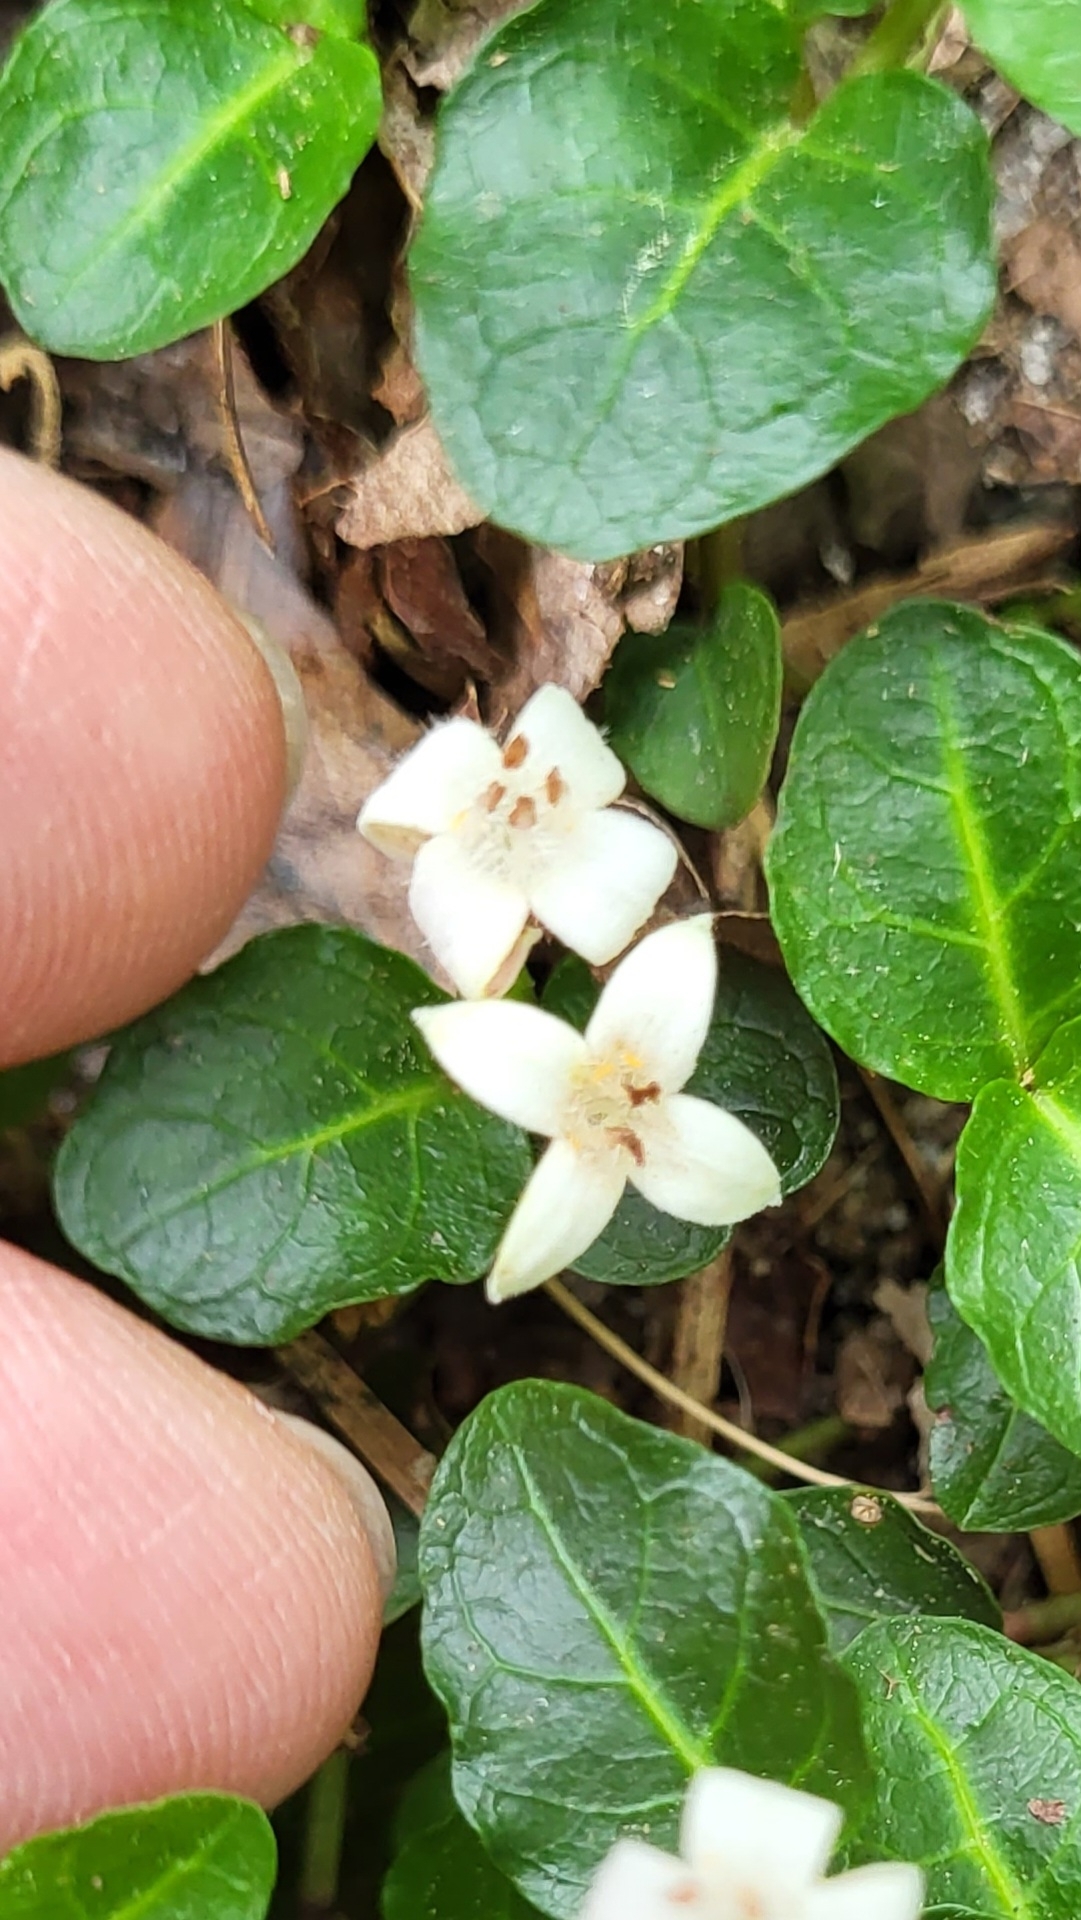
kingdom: Plantae
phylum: Tracheophyta
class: Magnoliopsida
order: Gentianales
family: Rubiaceae
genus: Mitchella
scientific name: Mitchella repens
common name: Partridge-berry
